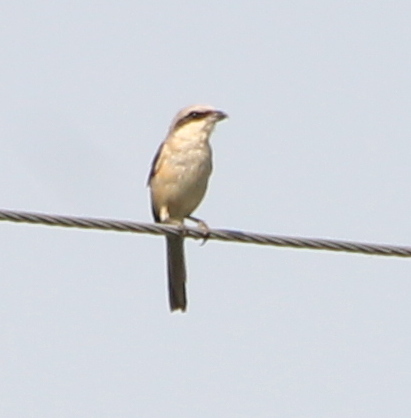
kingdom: Animalia
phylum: Chordata
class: Aves
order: Passeriformes
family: Laniidae
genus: Lanius
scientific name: Lanius schach
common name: Long-tailed shrike
